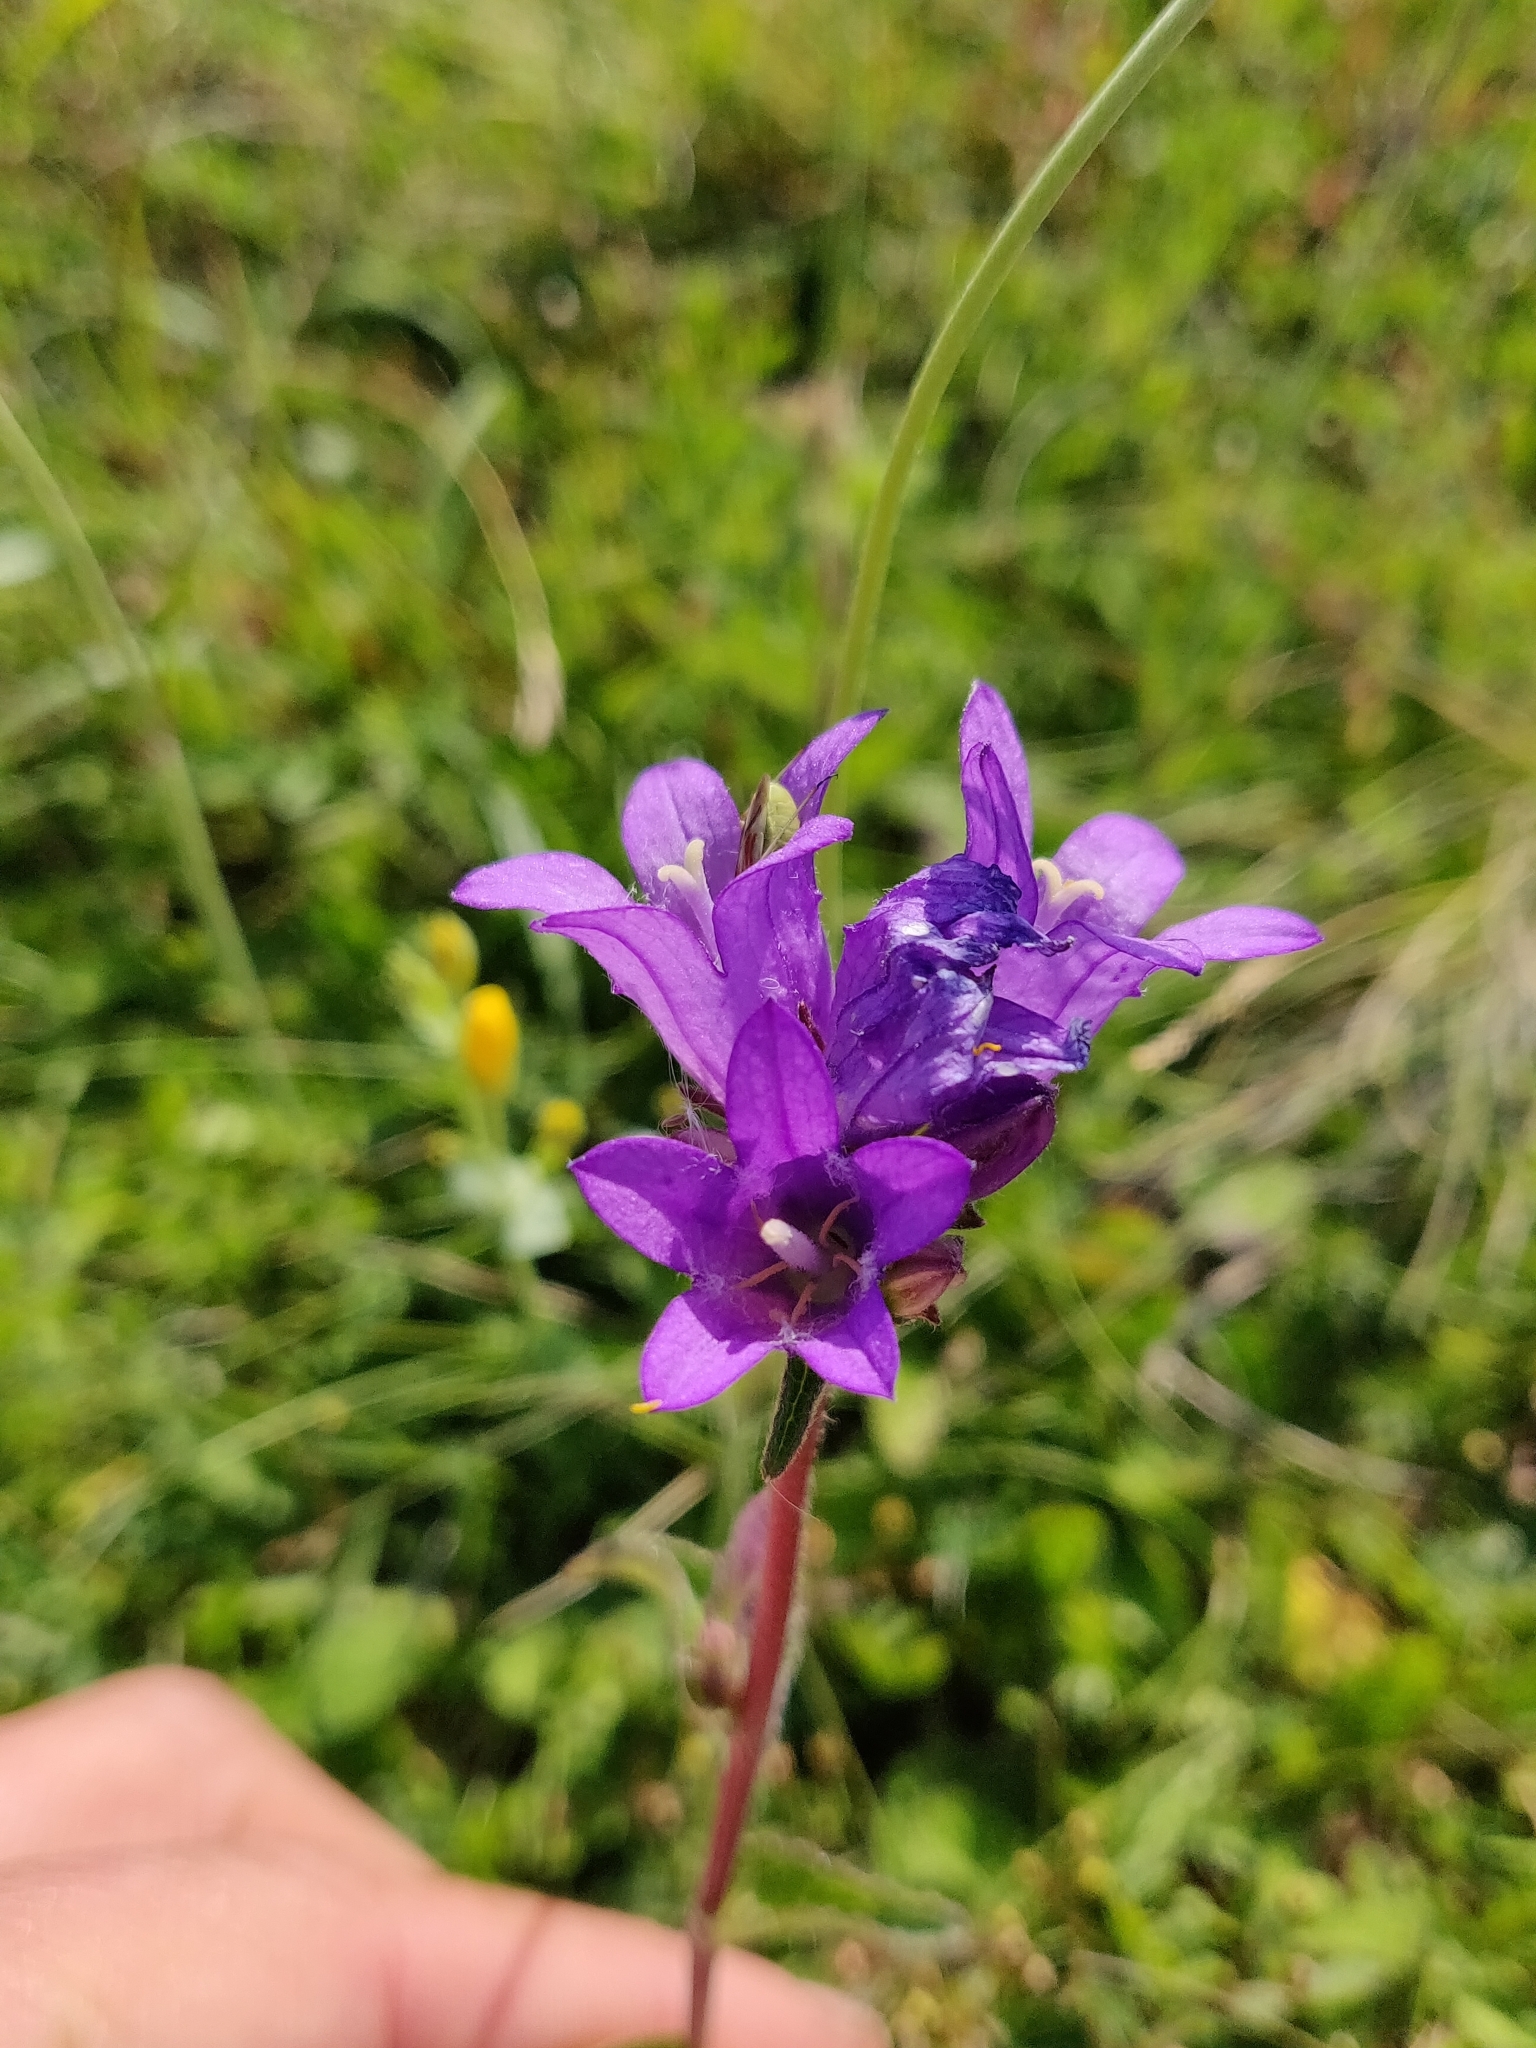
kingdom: Plantae
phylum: Tracheophyta
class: Magnoliopsida
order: Asterales
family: Campanulaceae
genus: Campanula
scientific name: Campanula glomerata
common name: Clustered bellflower
